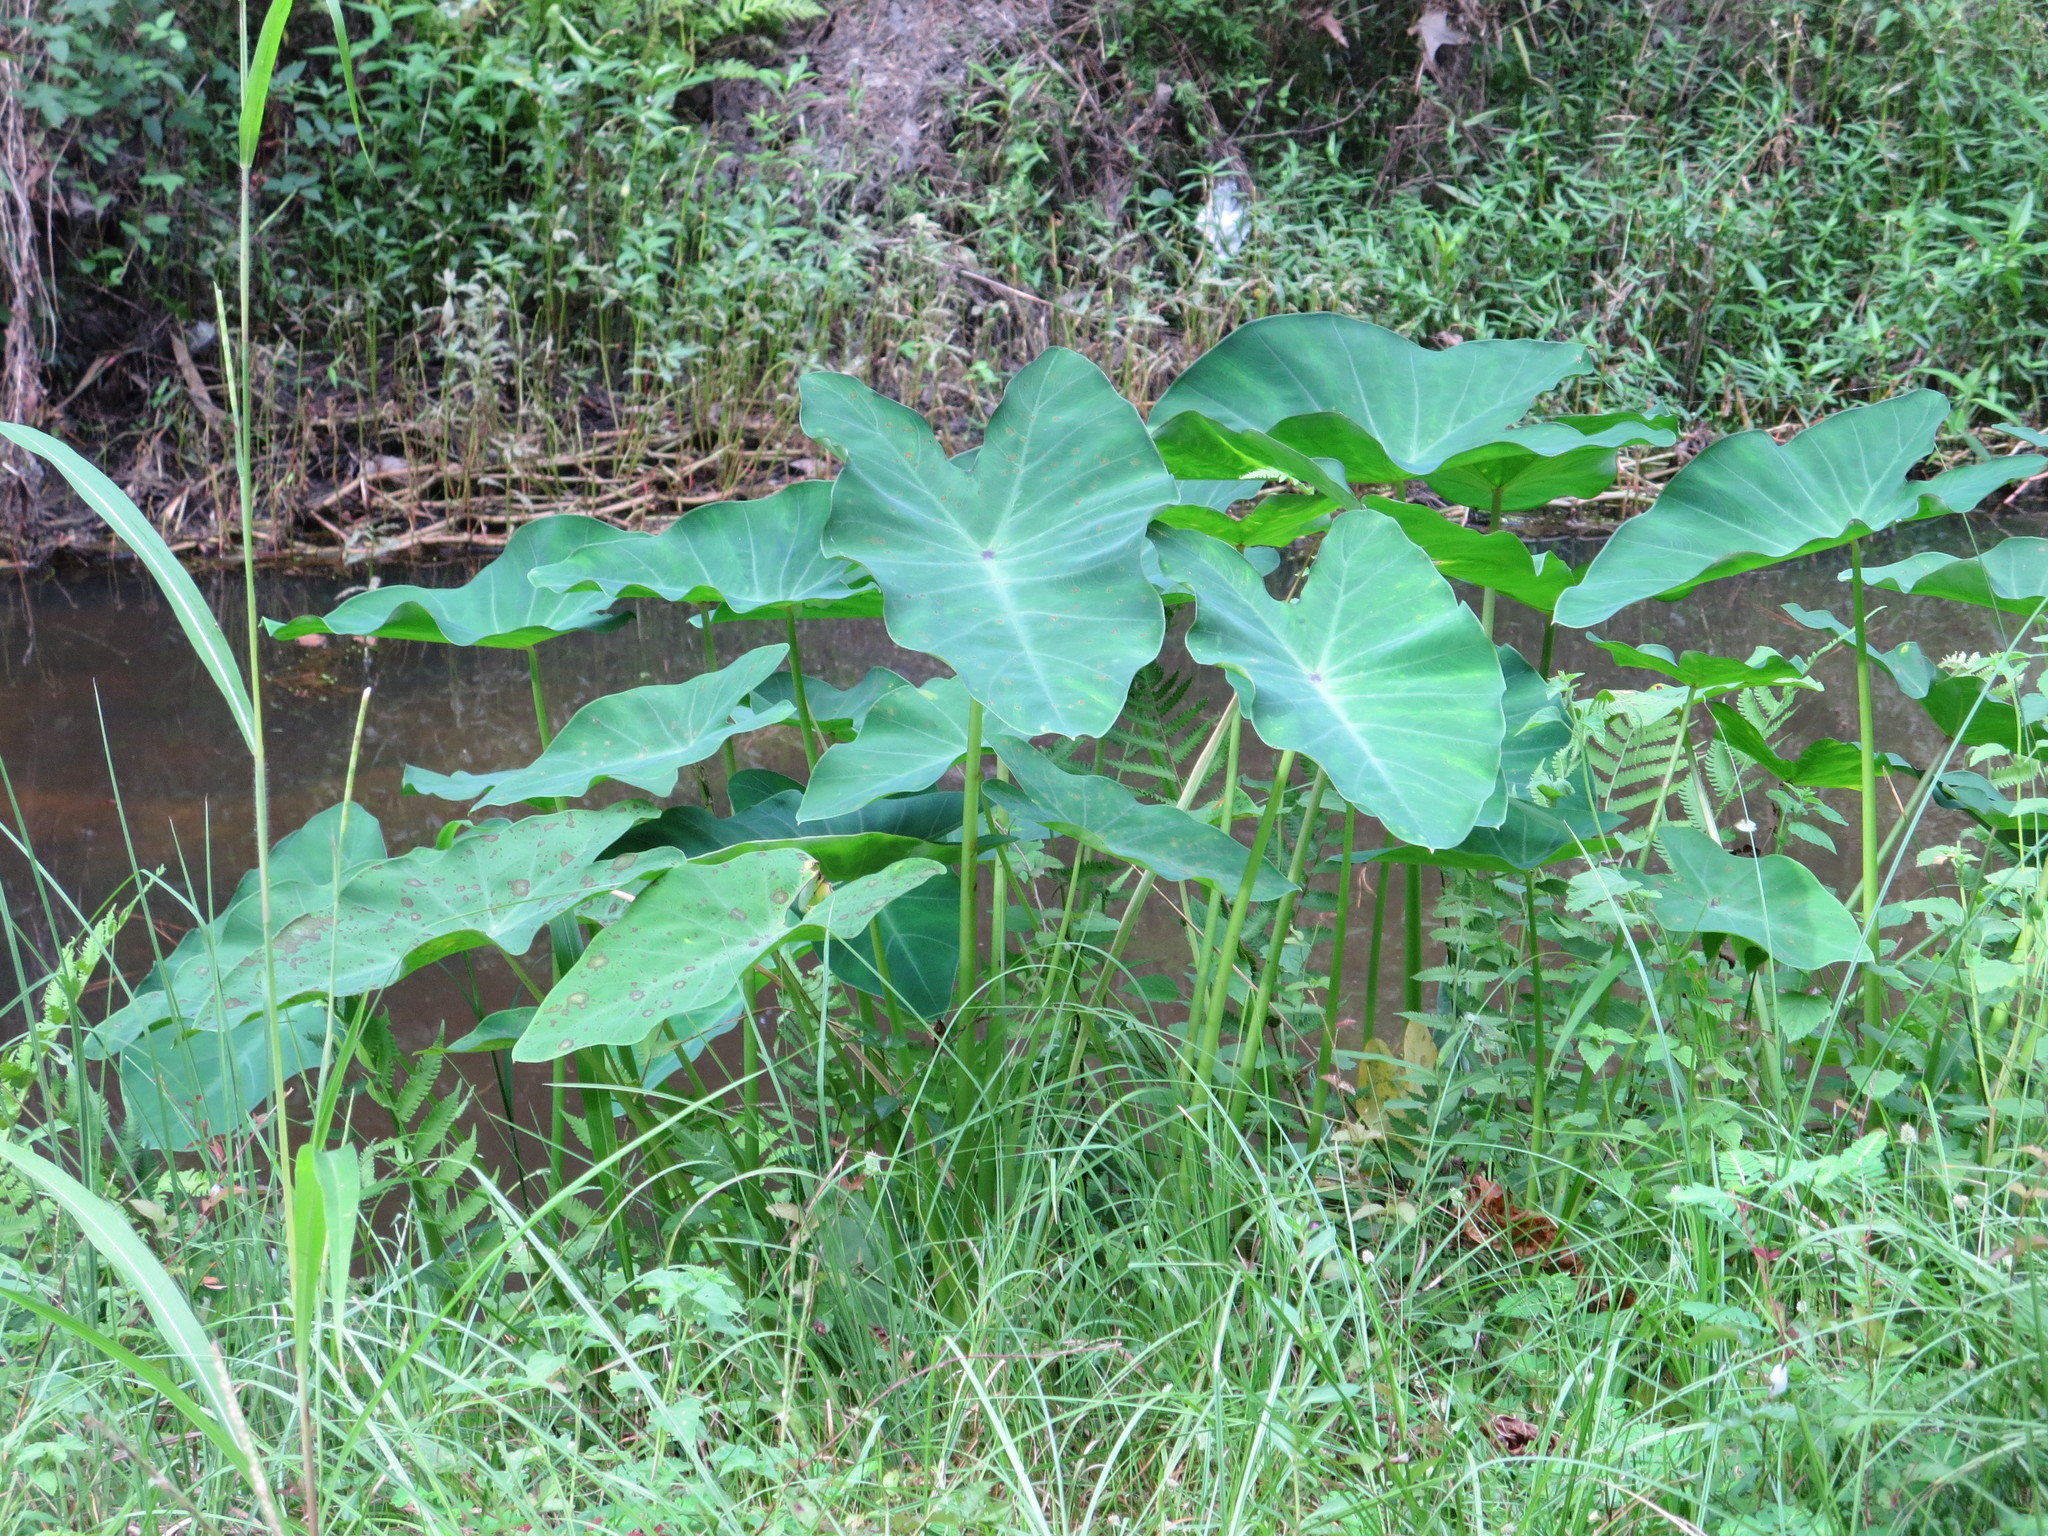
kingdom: Plantae
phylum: Tracheophyta
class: Liliopsida
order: Alismatales
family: Araceae
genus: Colocasia
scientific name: Colocasia esculenta
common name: Taro
